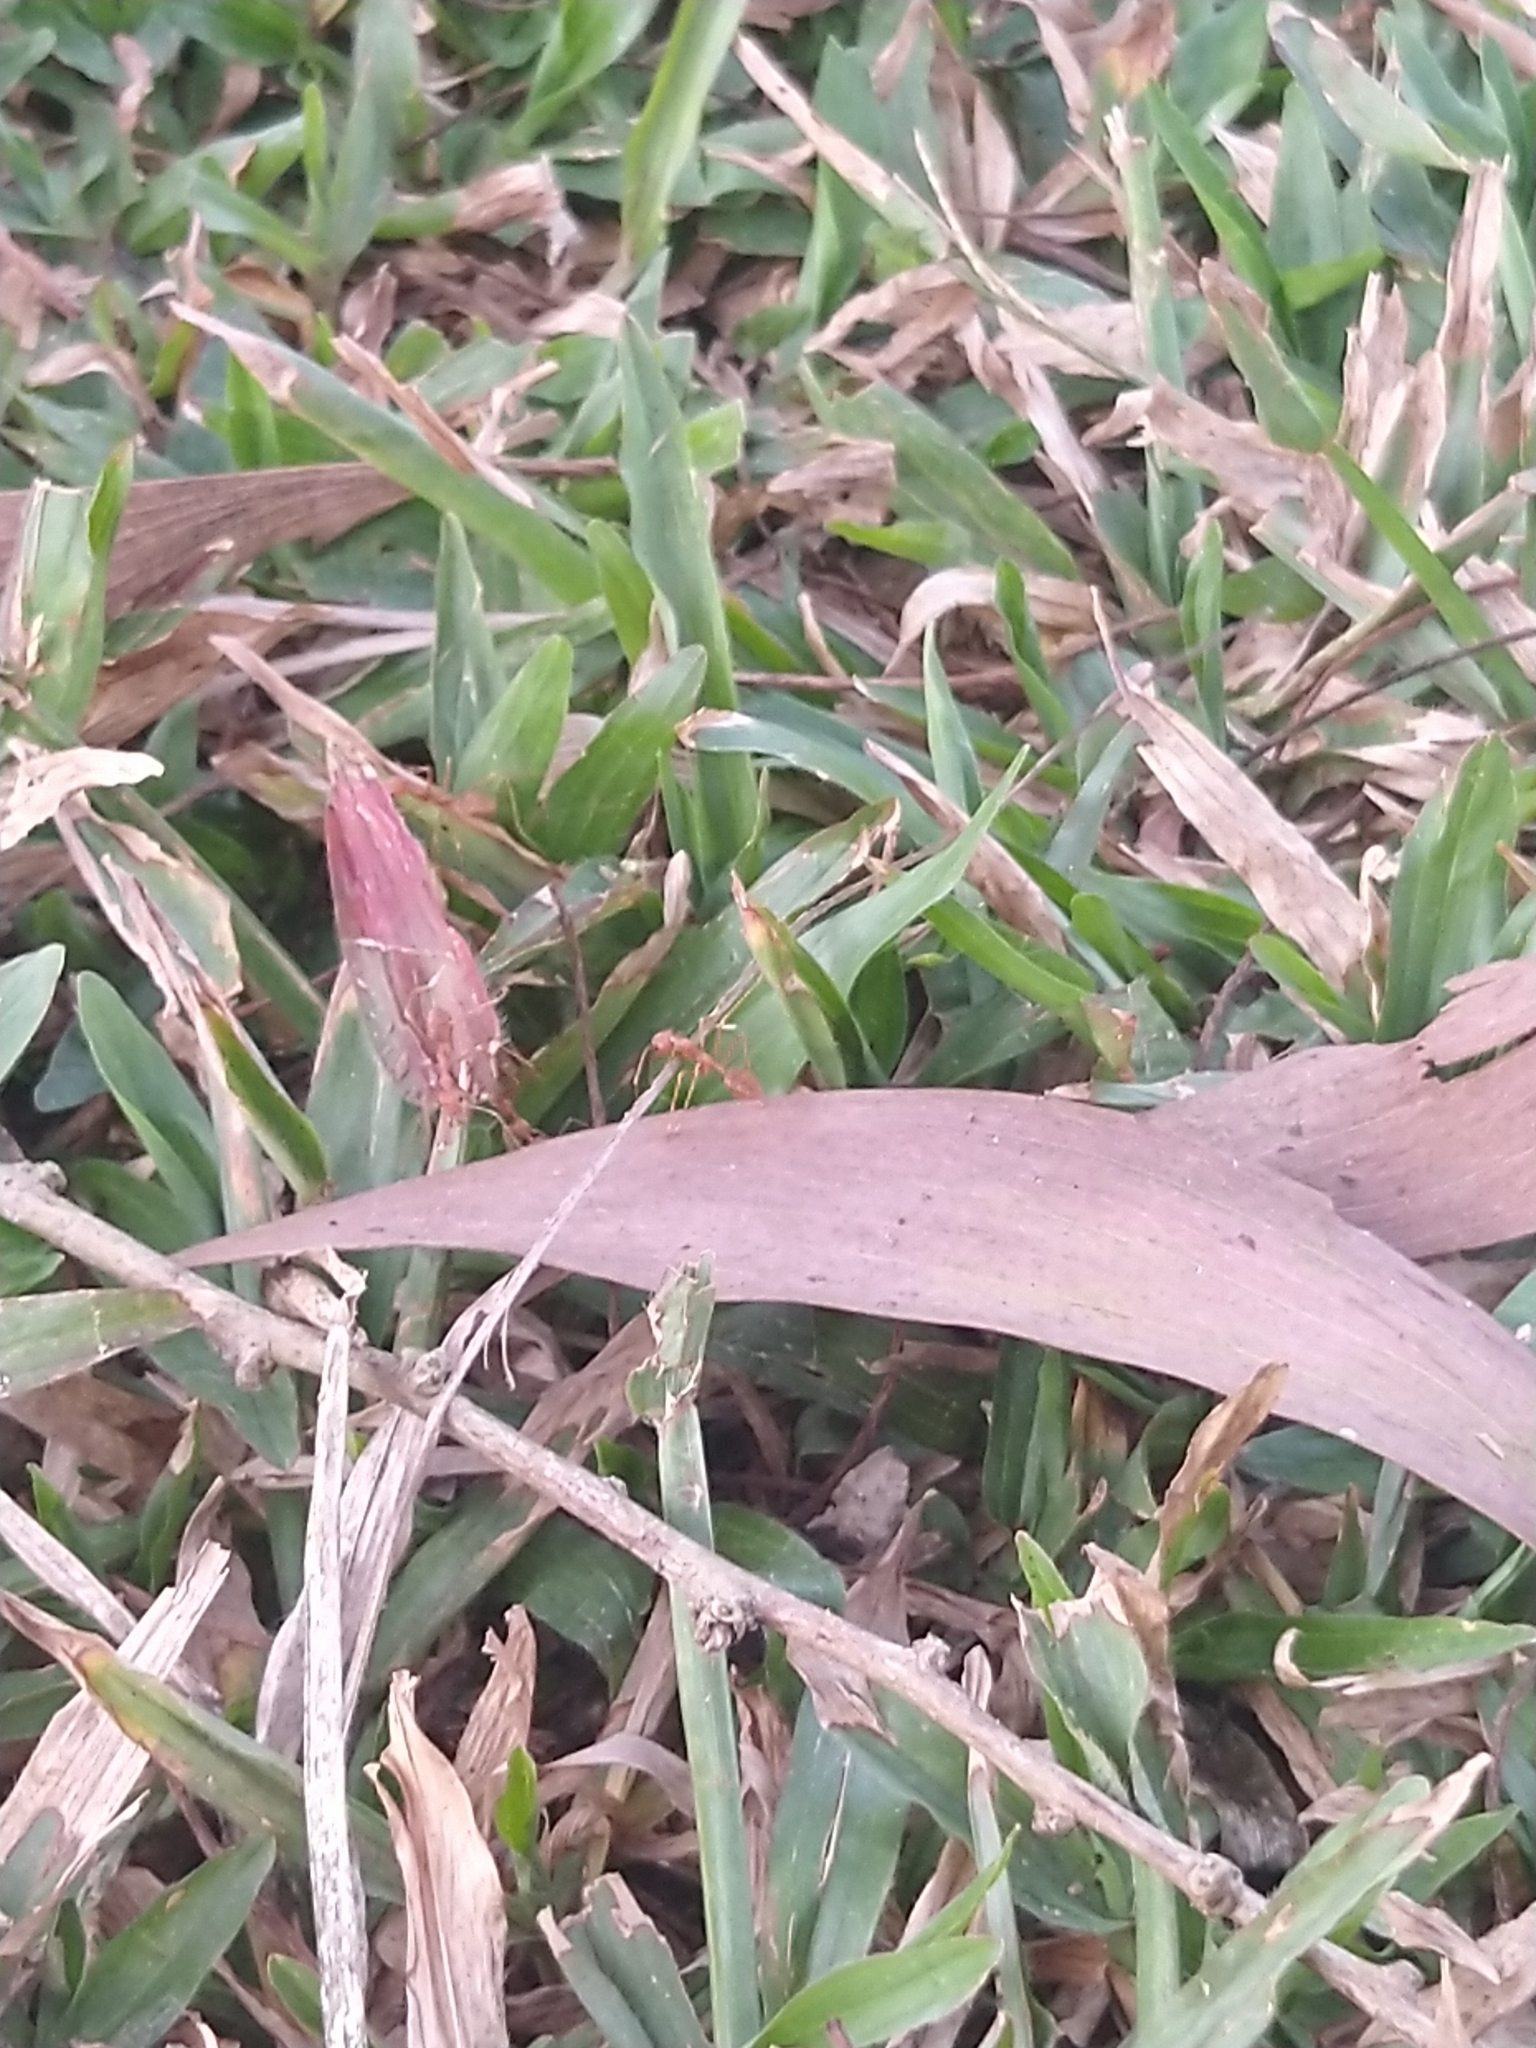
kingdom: Animalia
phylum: Arthropoda
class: Insecta
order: Hymenoptera
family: Formicidae
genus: Oecophylla
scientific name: Oecophylla smaragdina
